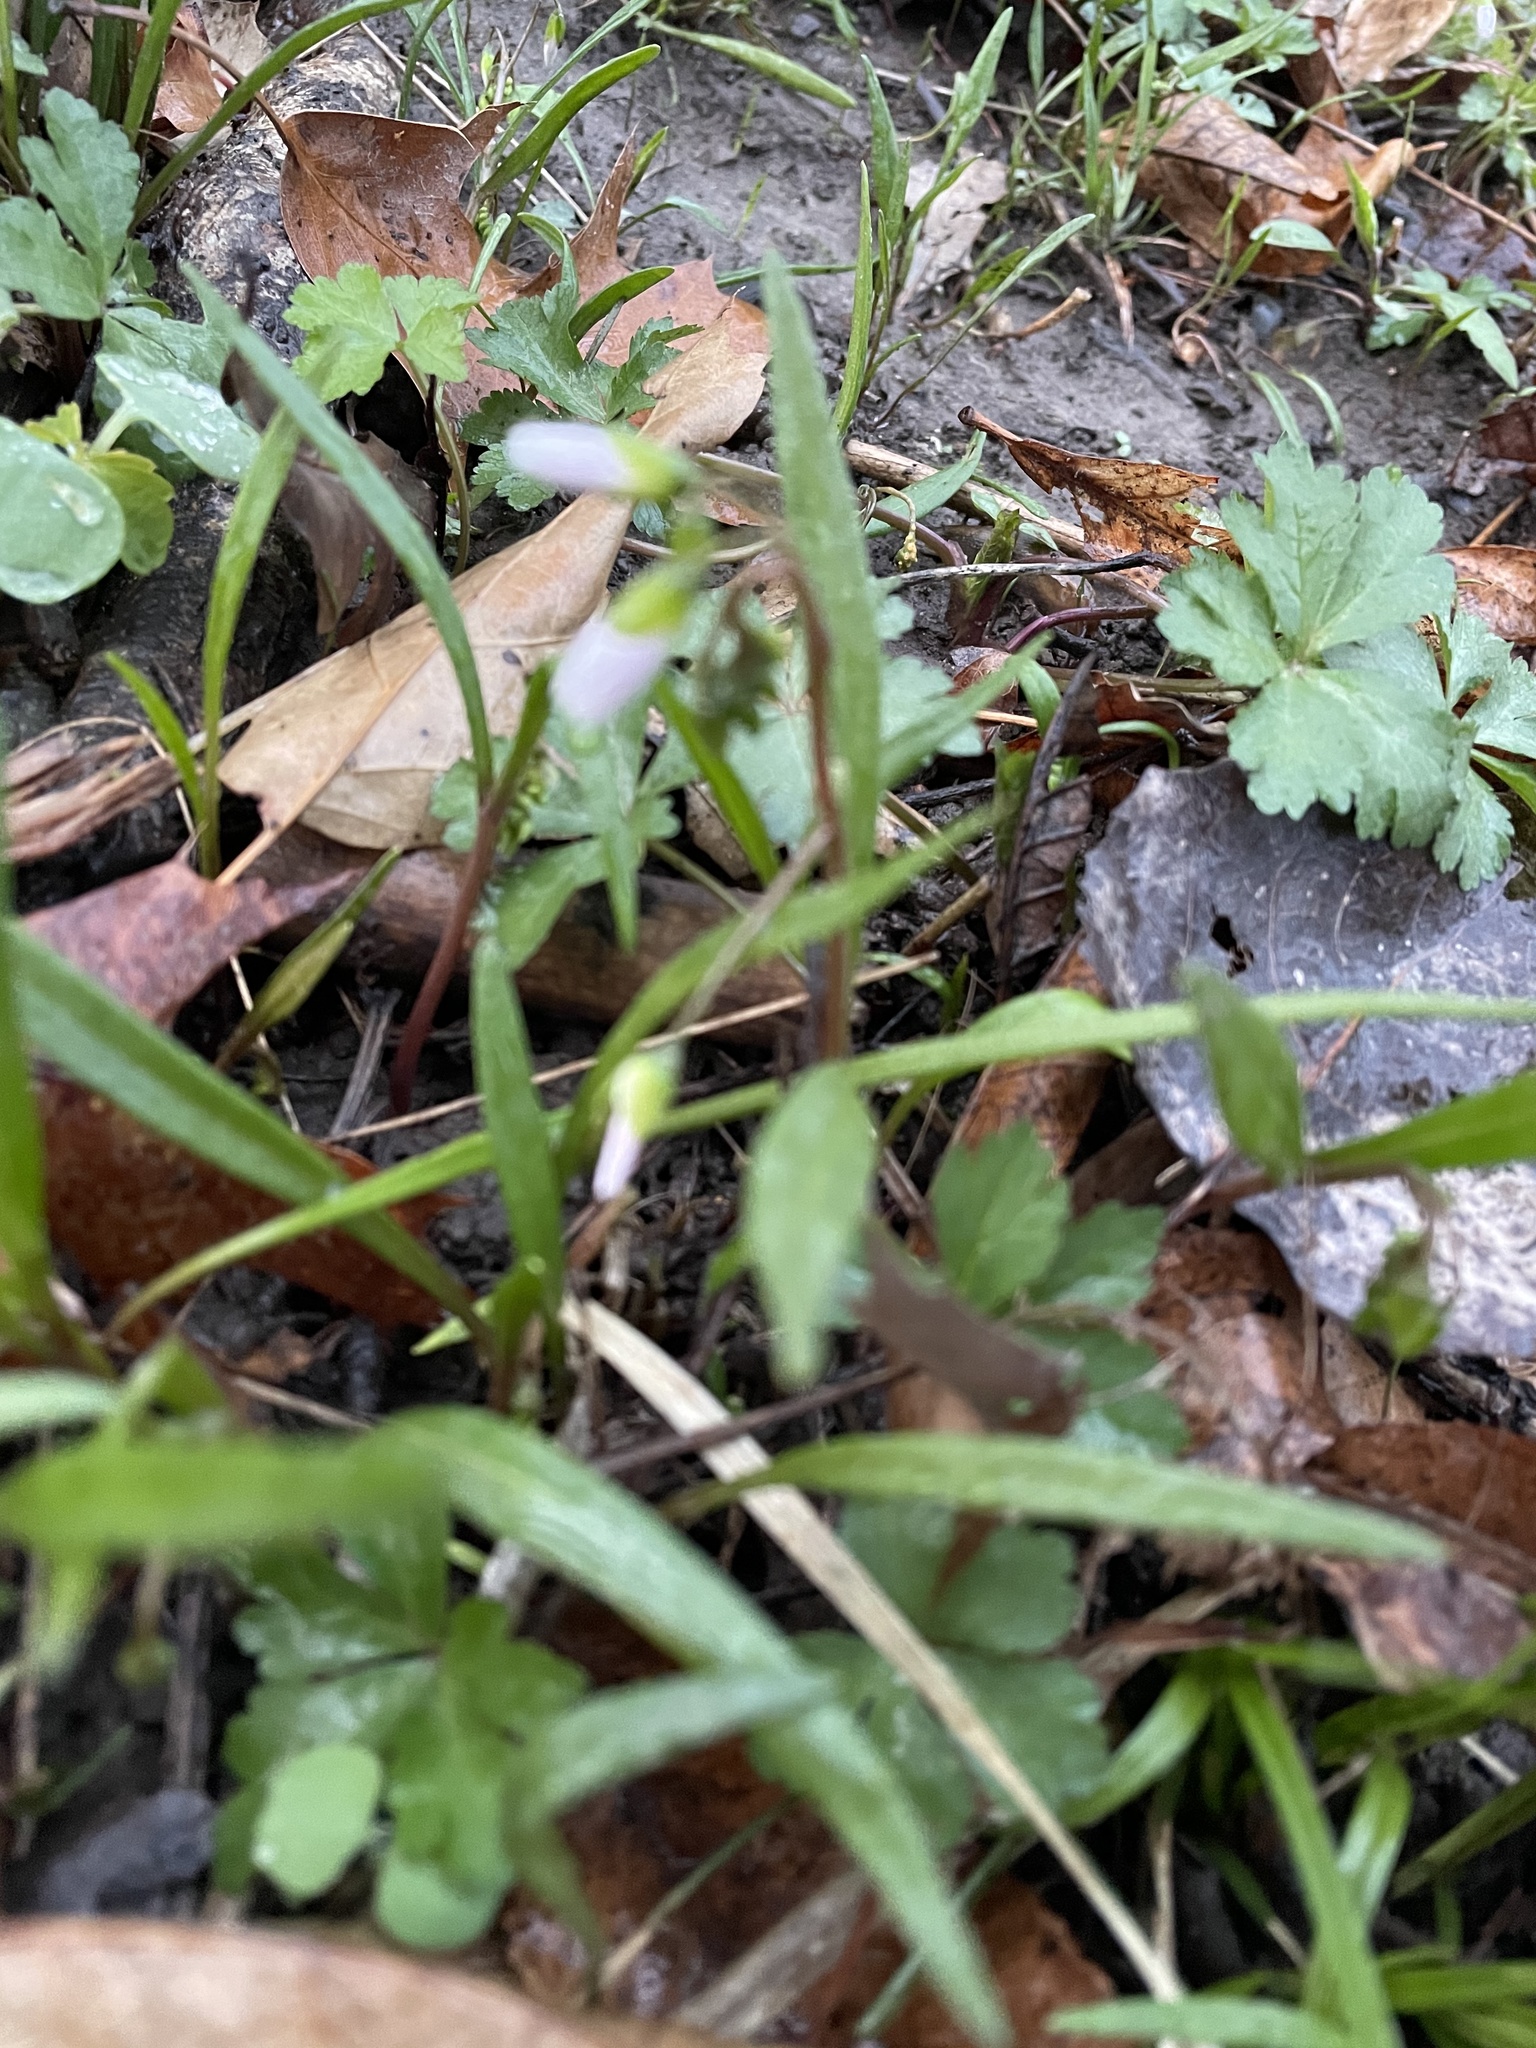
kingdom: Plantae
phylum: Tracheophyta
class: Magnoliopsida
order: Caryophyllales
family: Montiaceae
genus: Claytonia
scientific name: Claytonia virginica
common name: Virginia springbeauty
